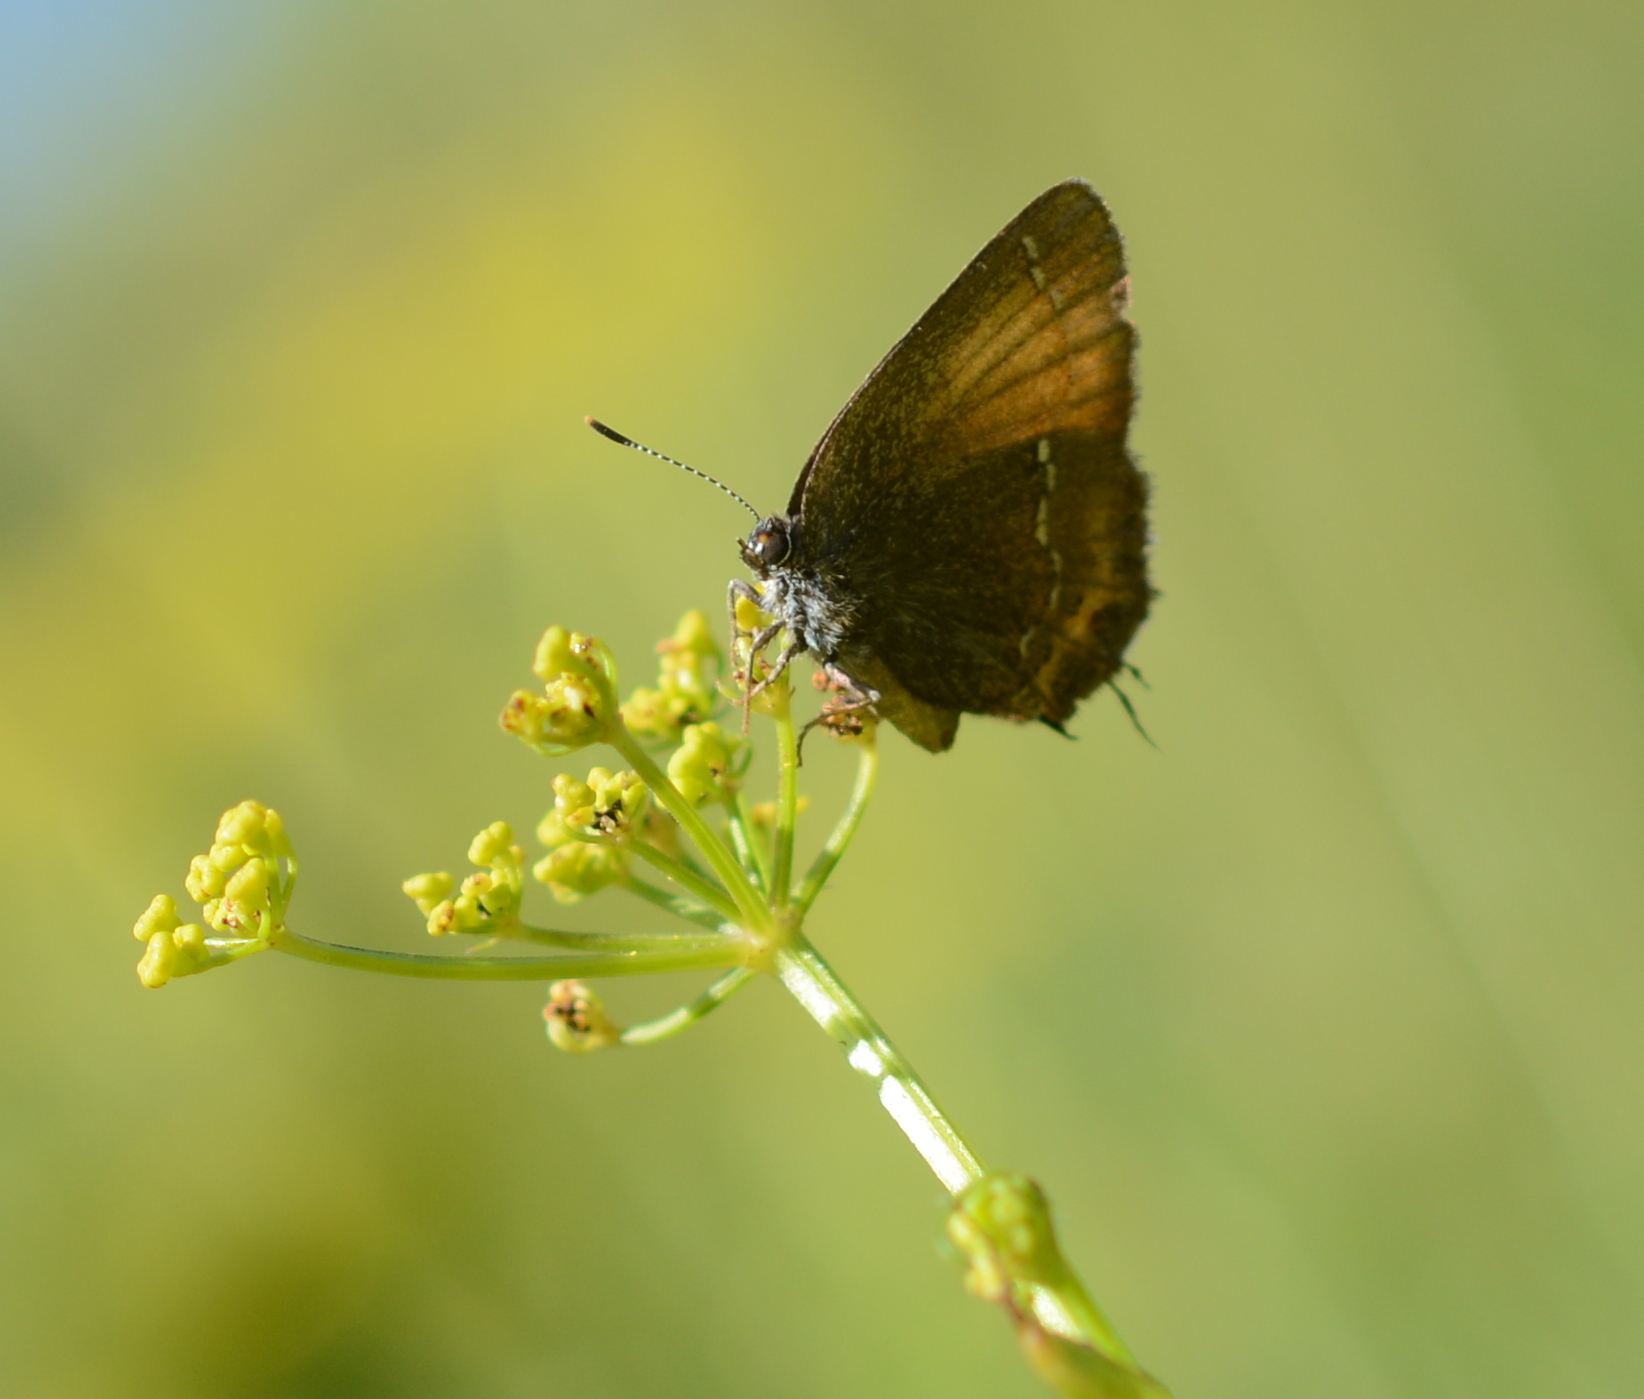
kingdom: Animalia
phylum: Arthropoda
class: Insecta
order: Lepidoptera
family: Lycaenidae
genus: Mitoura
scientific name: Mitoura gryneus
